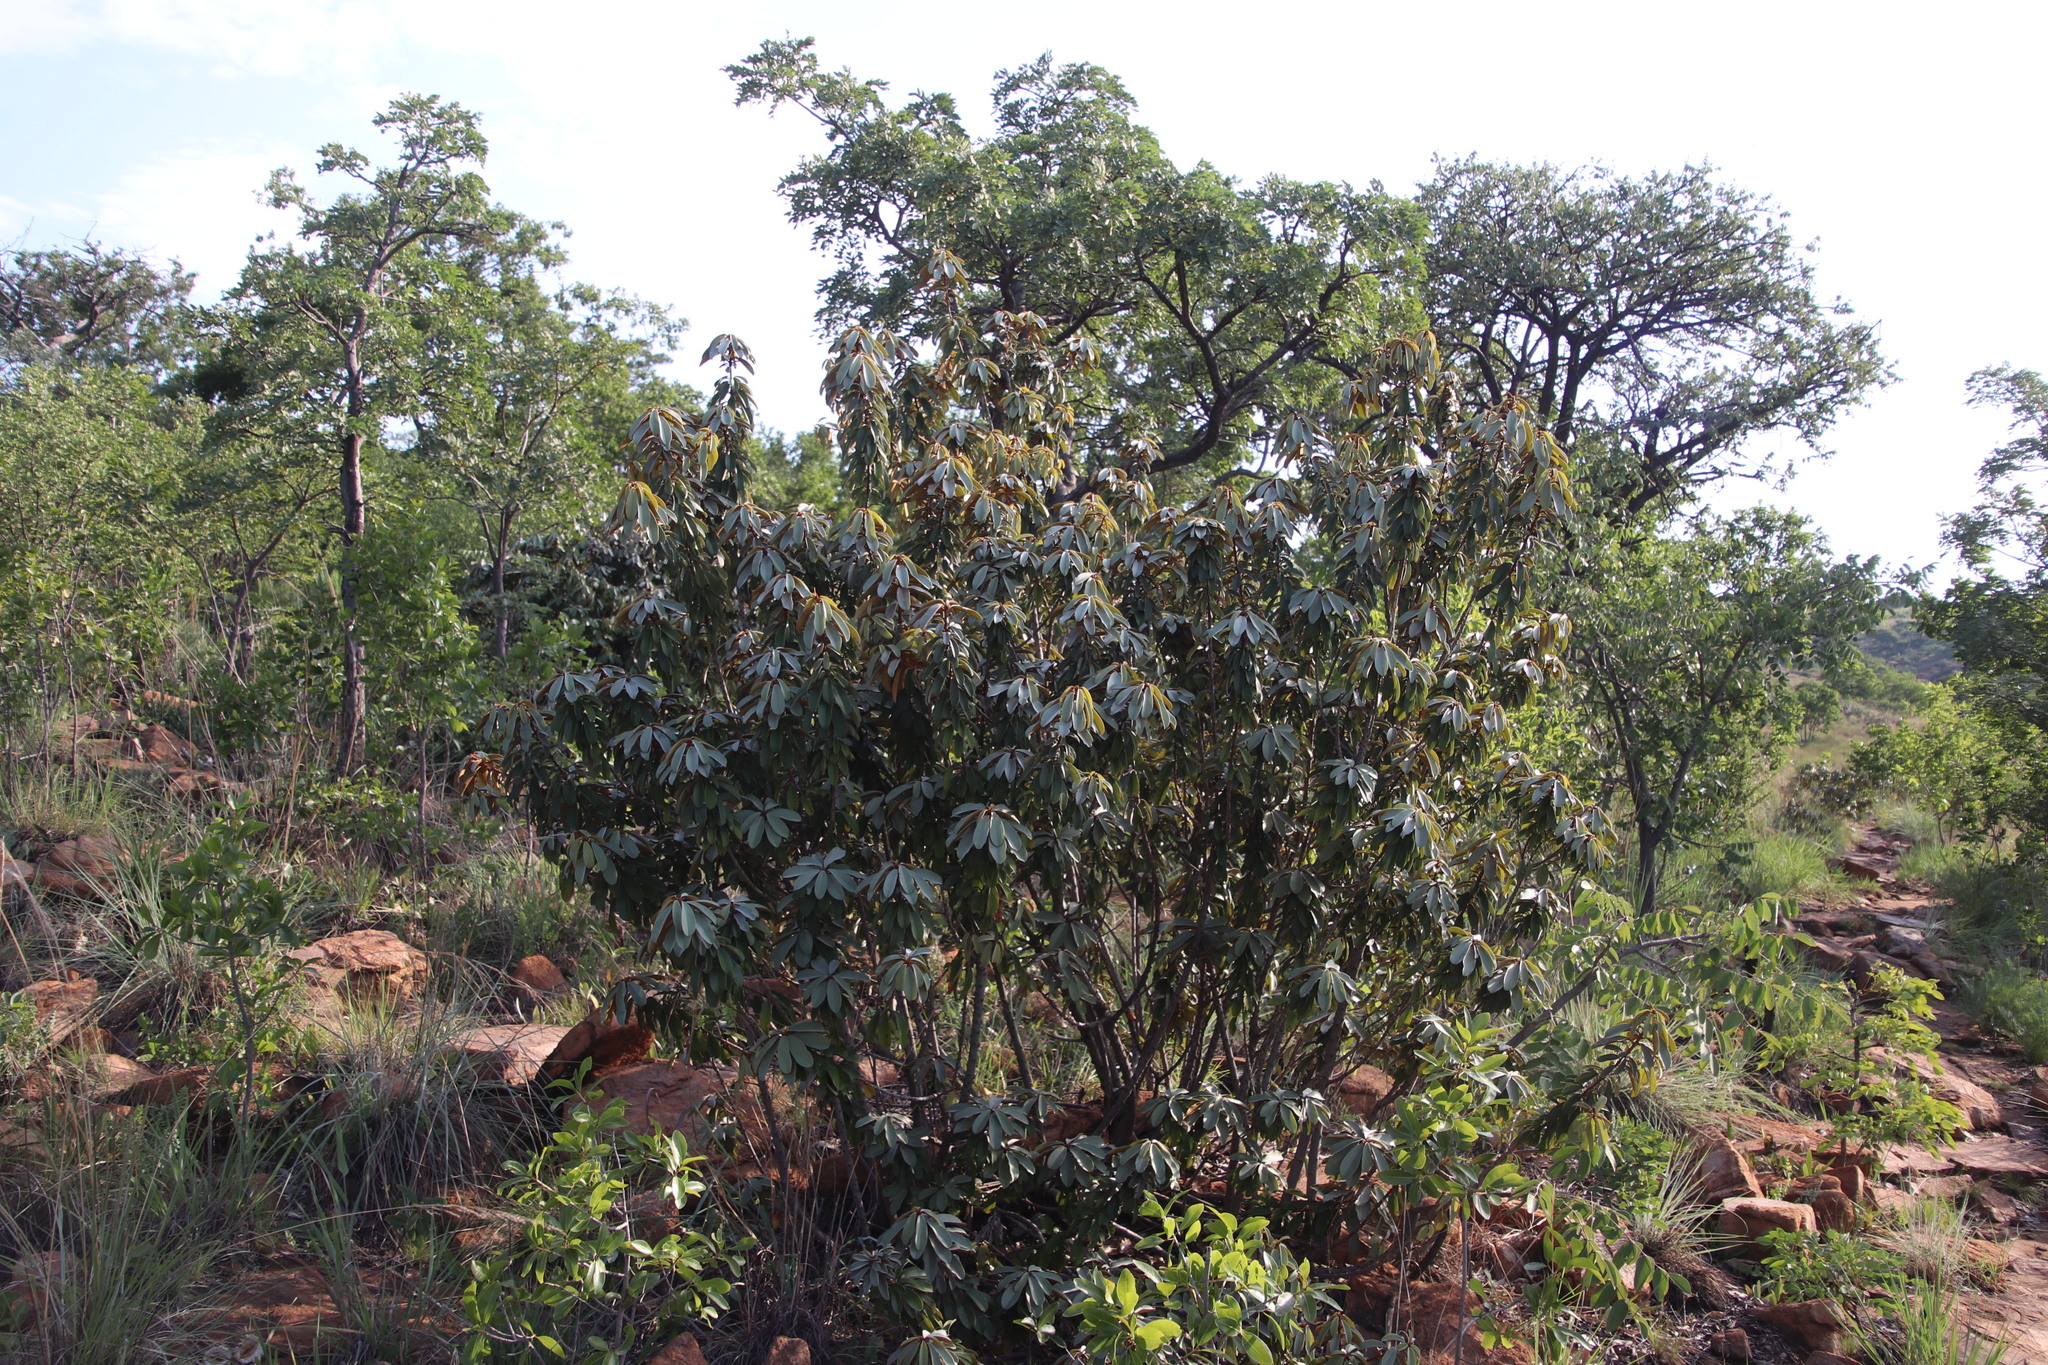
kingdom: Plantae
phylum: Tracheophyta
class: Magnoliopsida
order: Ericales
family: Sapotaceae
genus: Englerophytum
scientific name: Englerophytum magalismontanum
